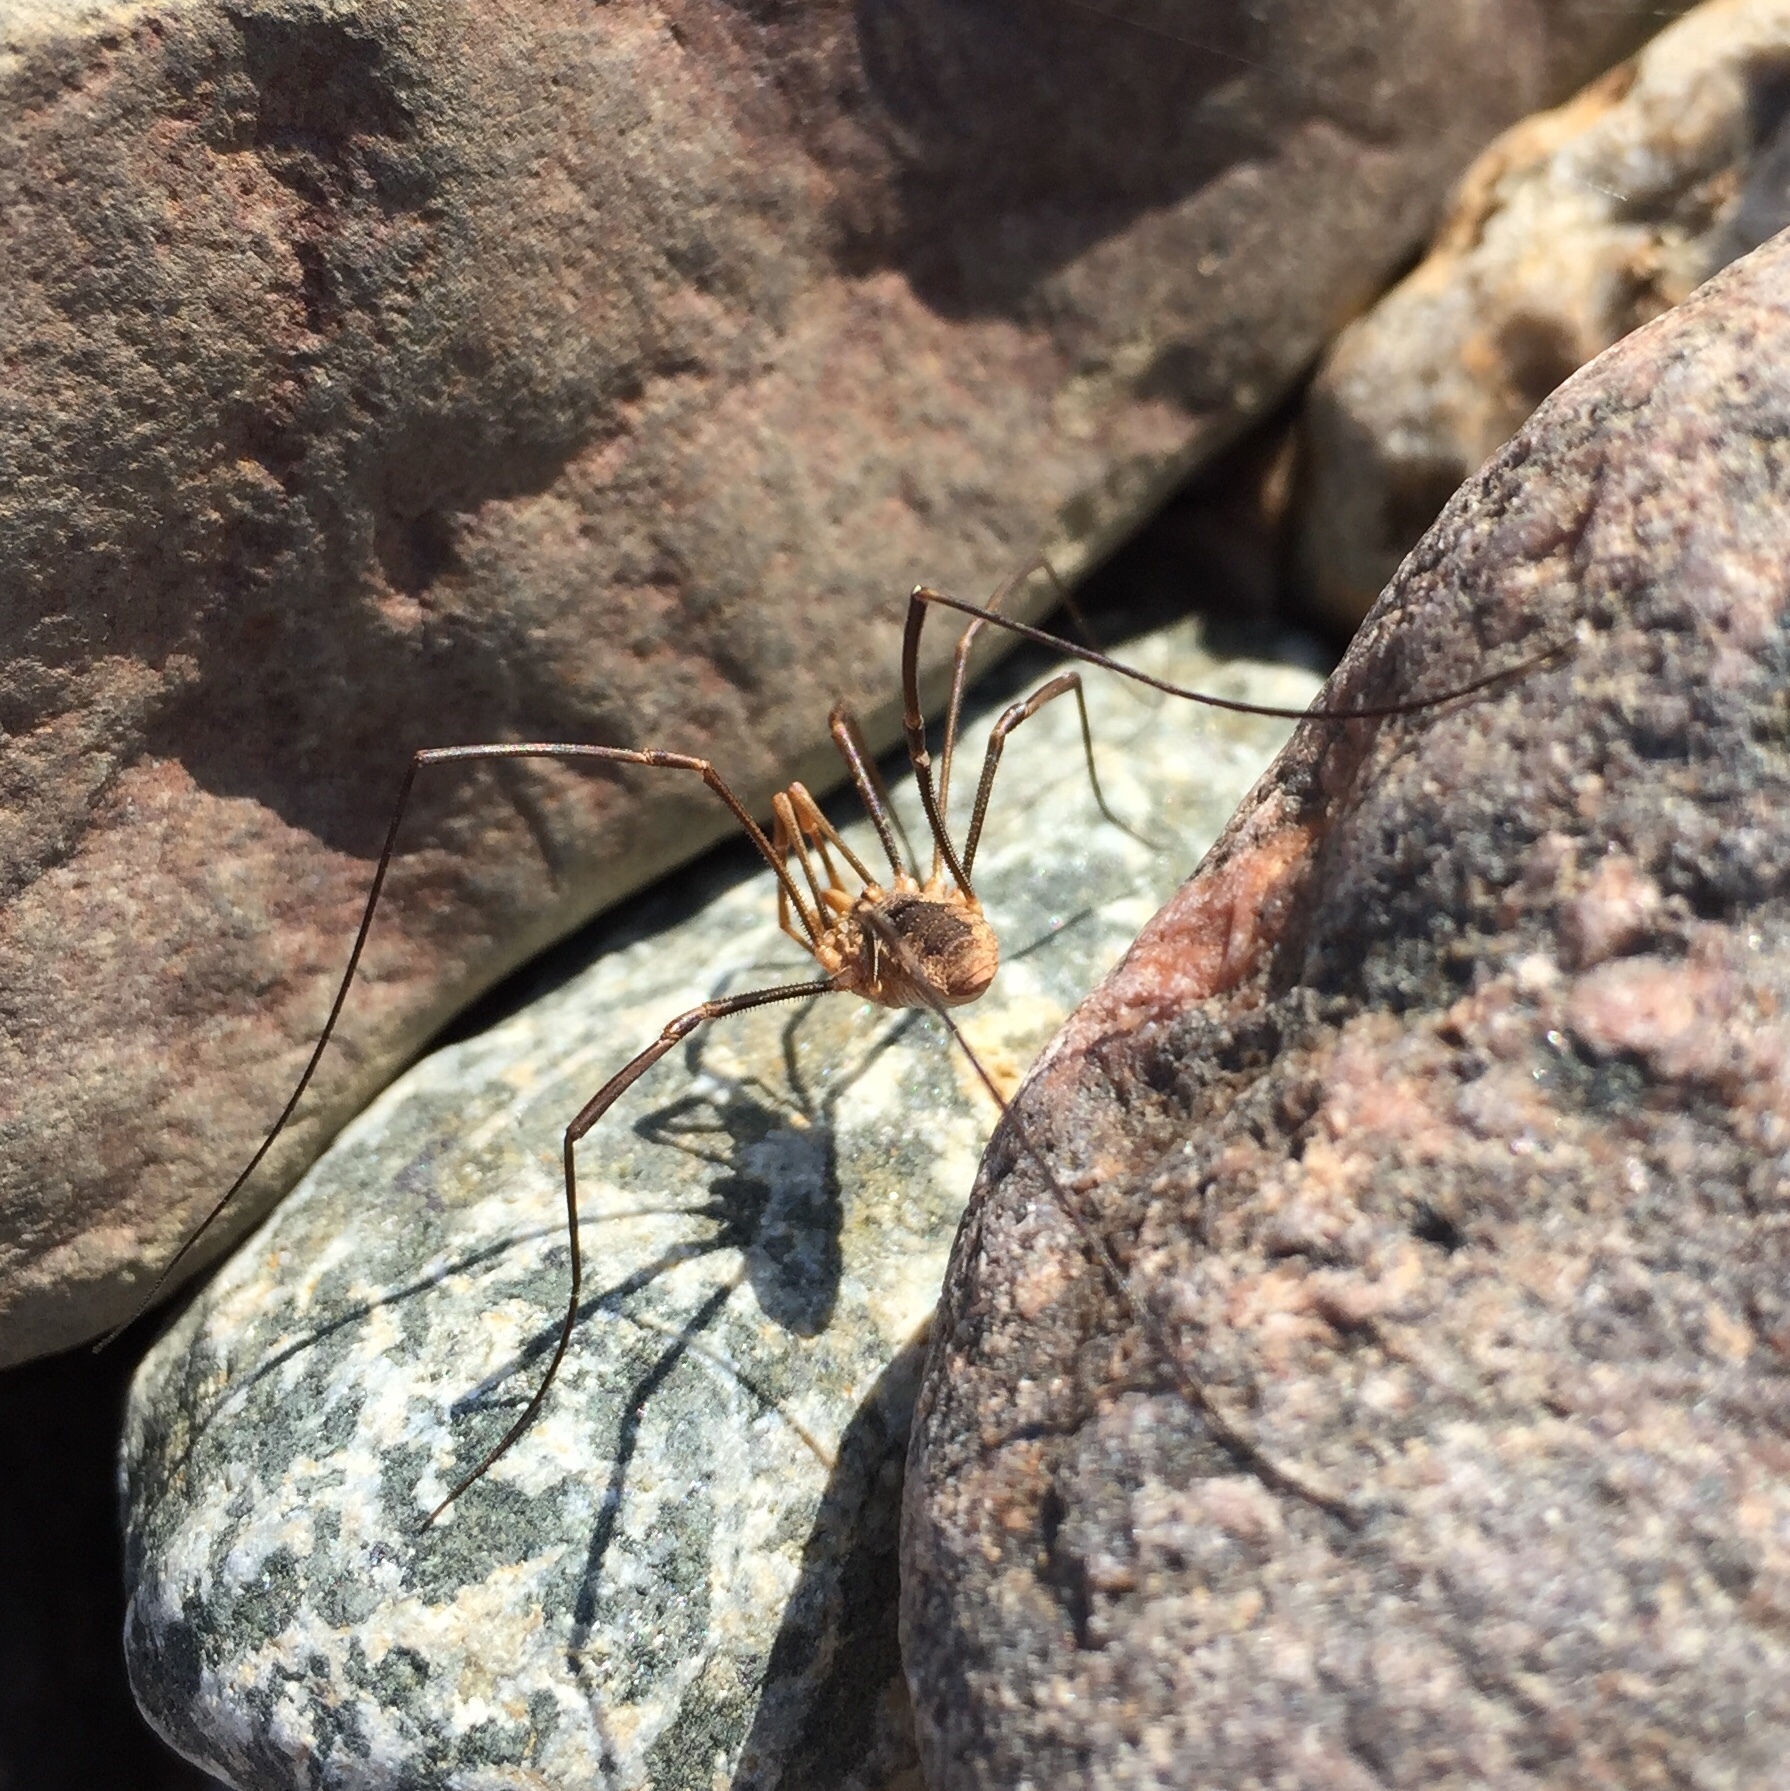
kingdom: Animalia
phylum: Arthropoda
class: Arachnida
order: Opiliones
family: Phalangiidae
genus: Phalangium
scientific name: Phalangium opilio
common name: Daddy longleg
